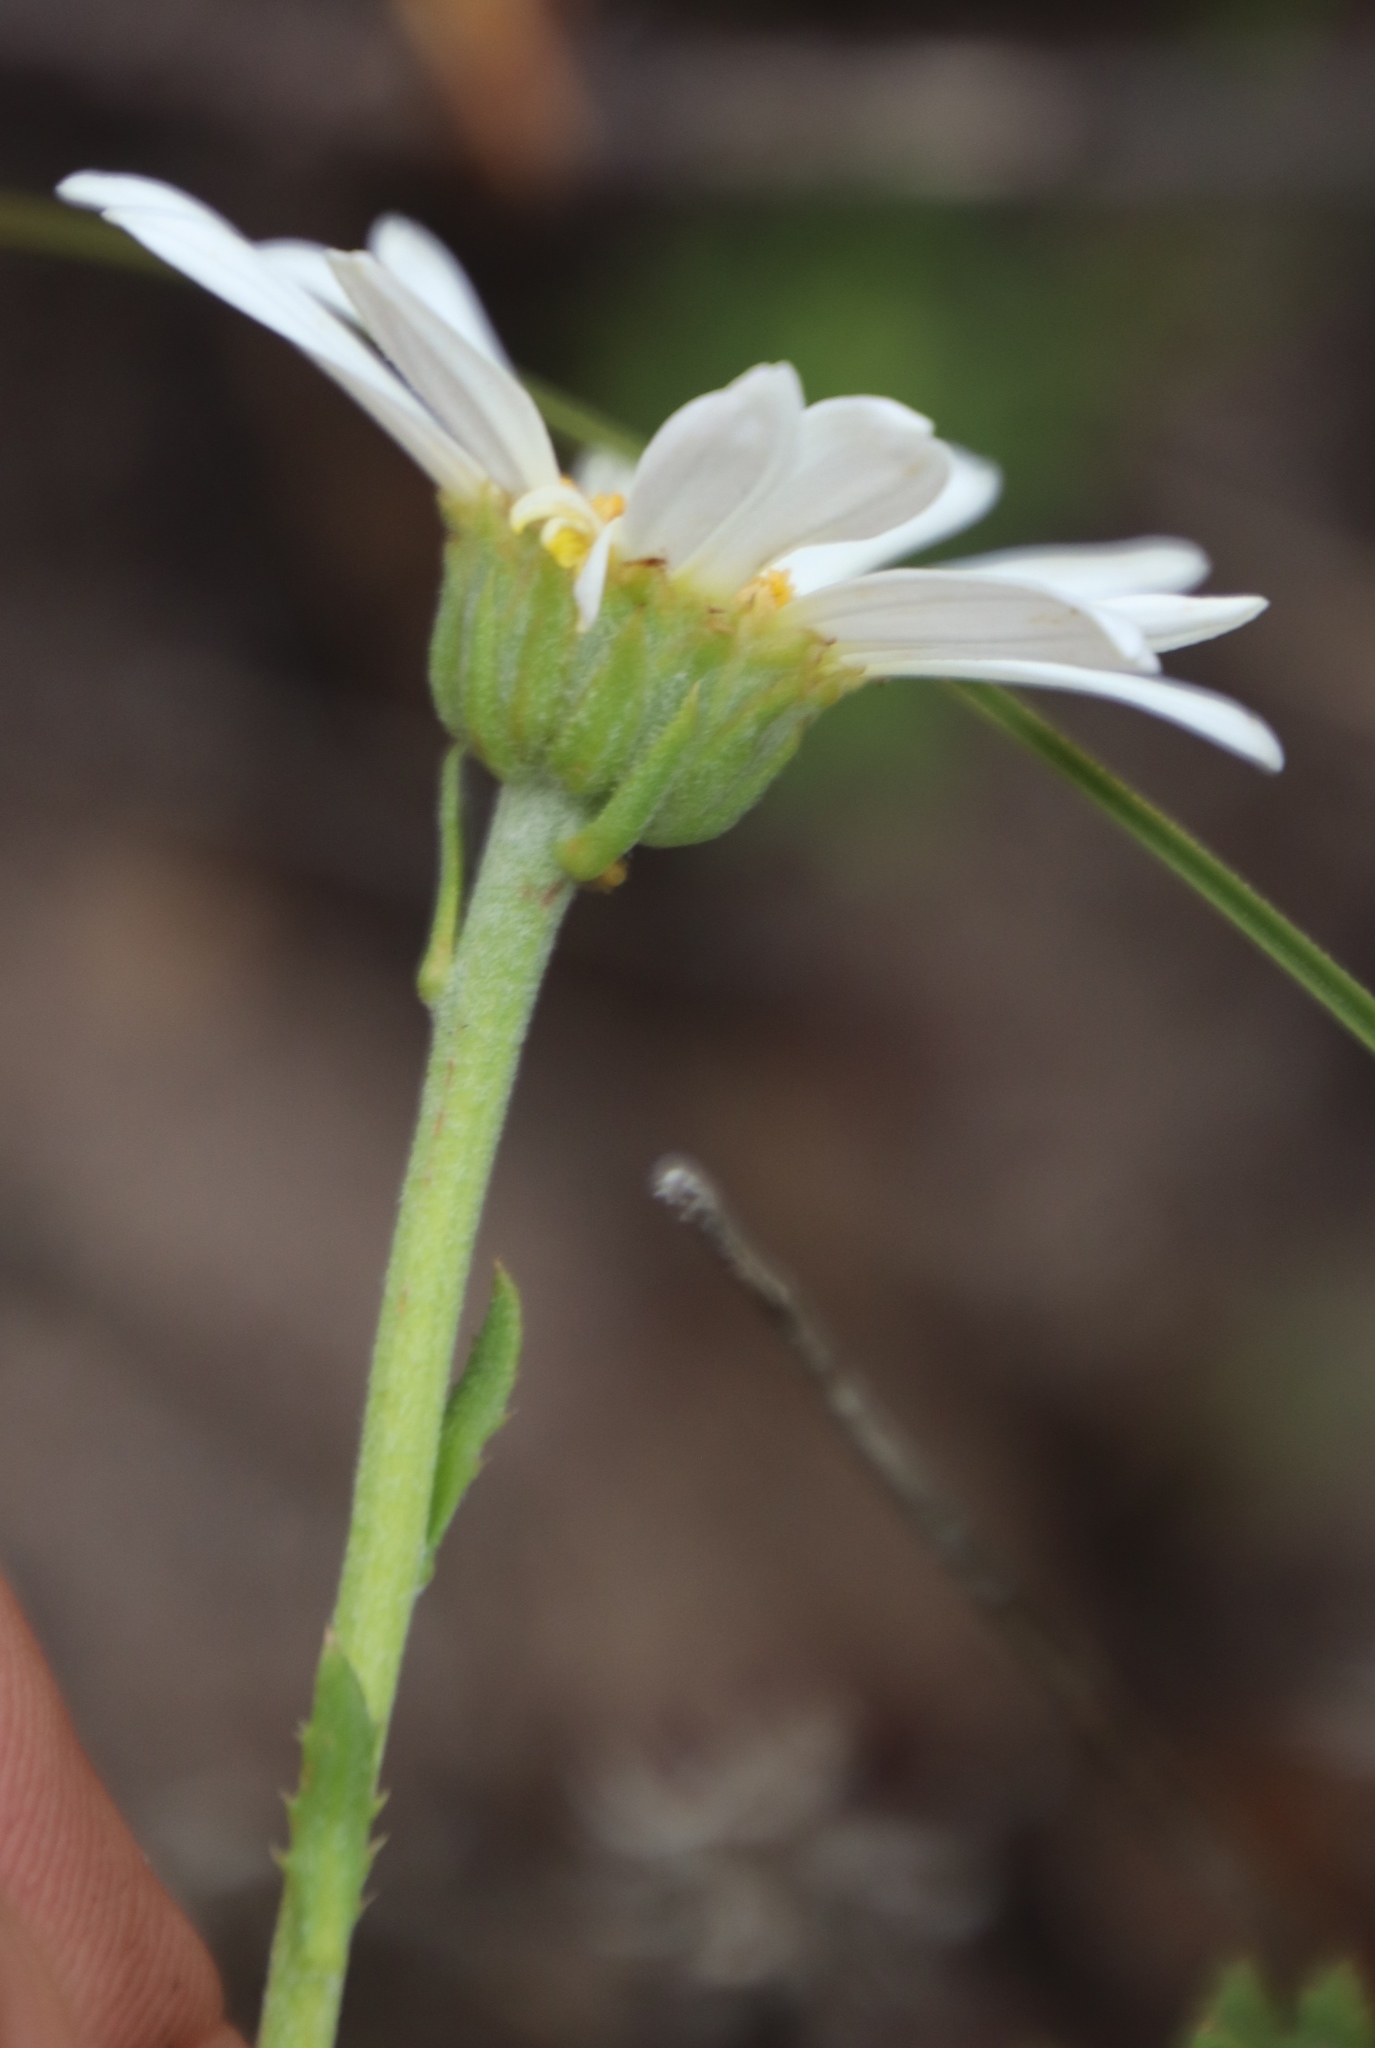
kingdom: Plantae
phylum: Tracheophyta
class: Magnoliopsida
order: Asterales
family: Asteraceae
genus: Osmitopsis
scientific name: Osmitopsis afra
